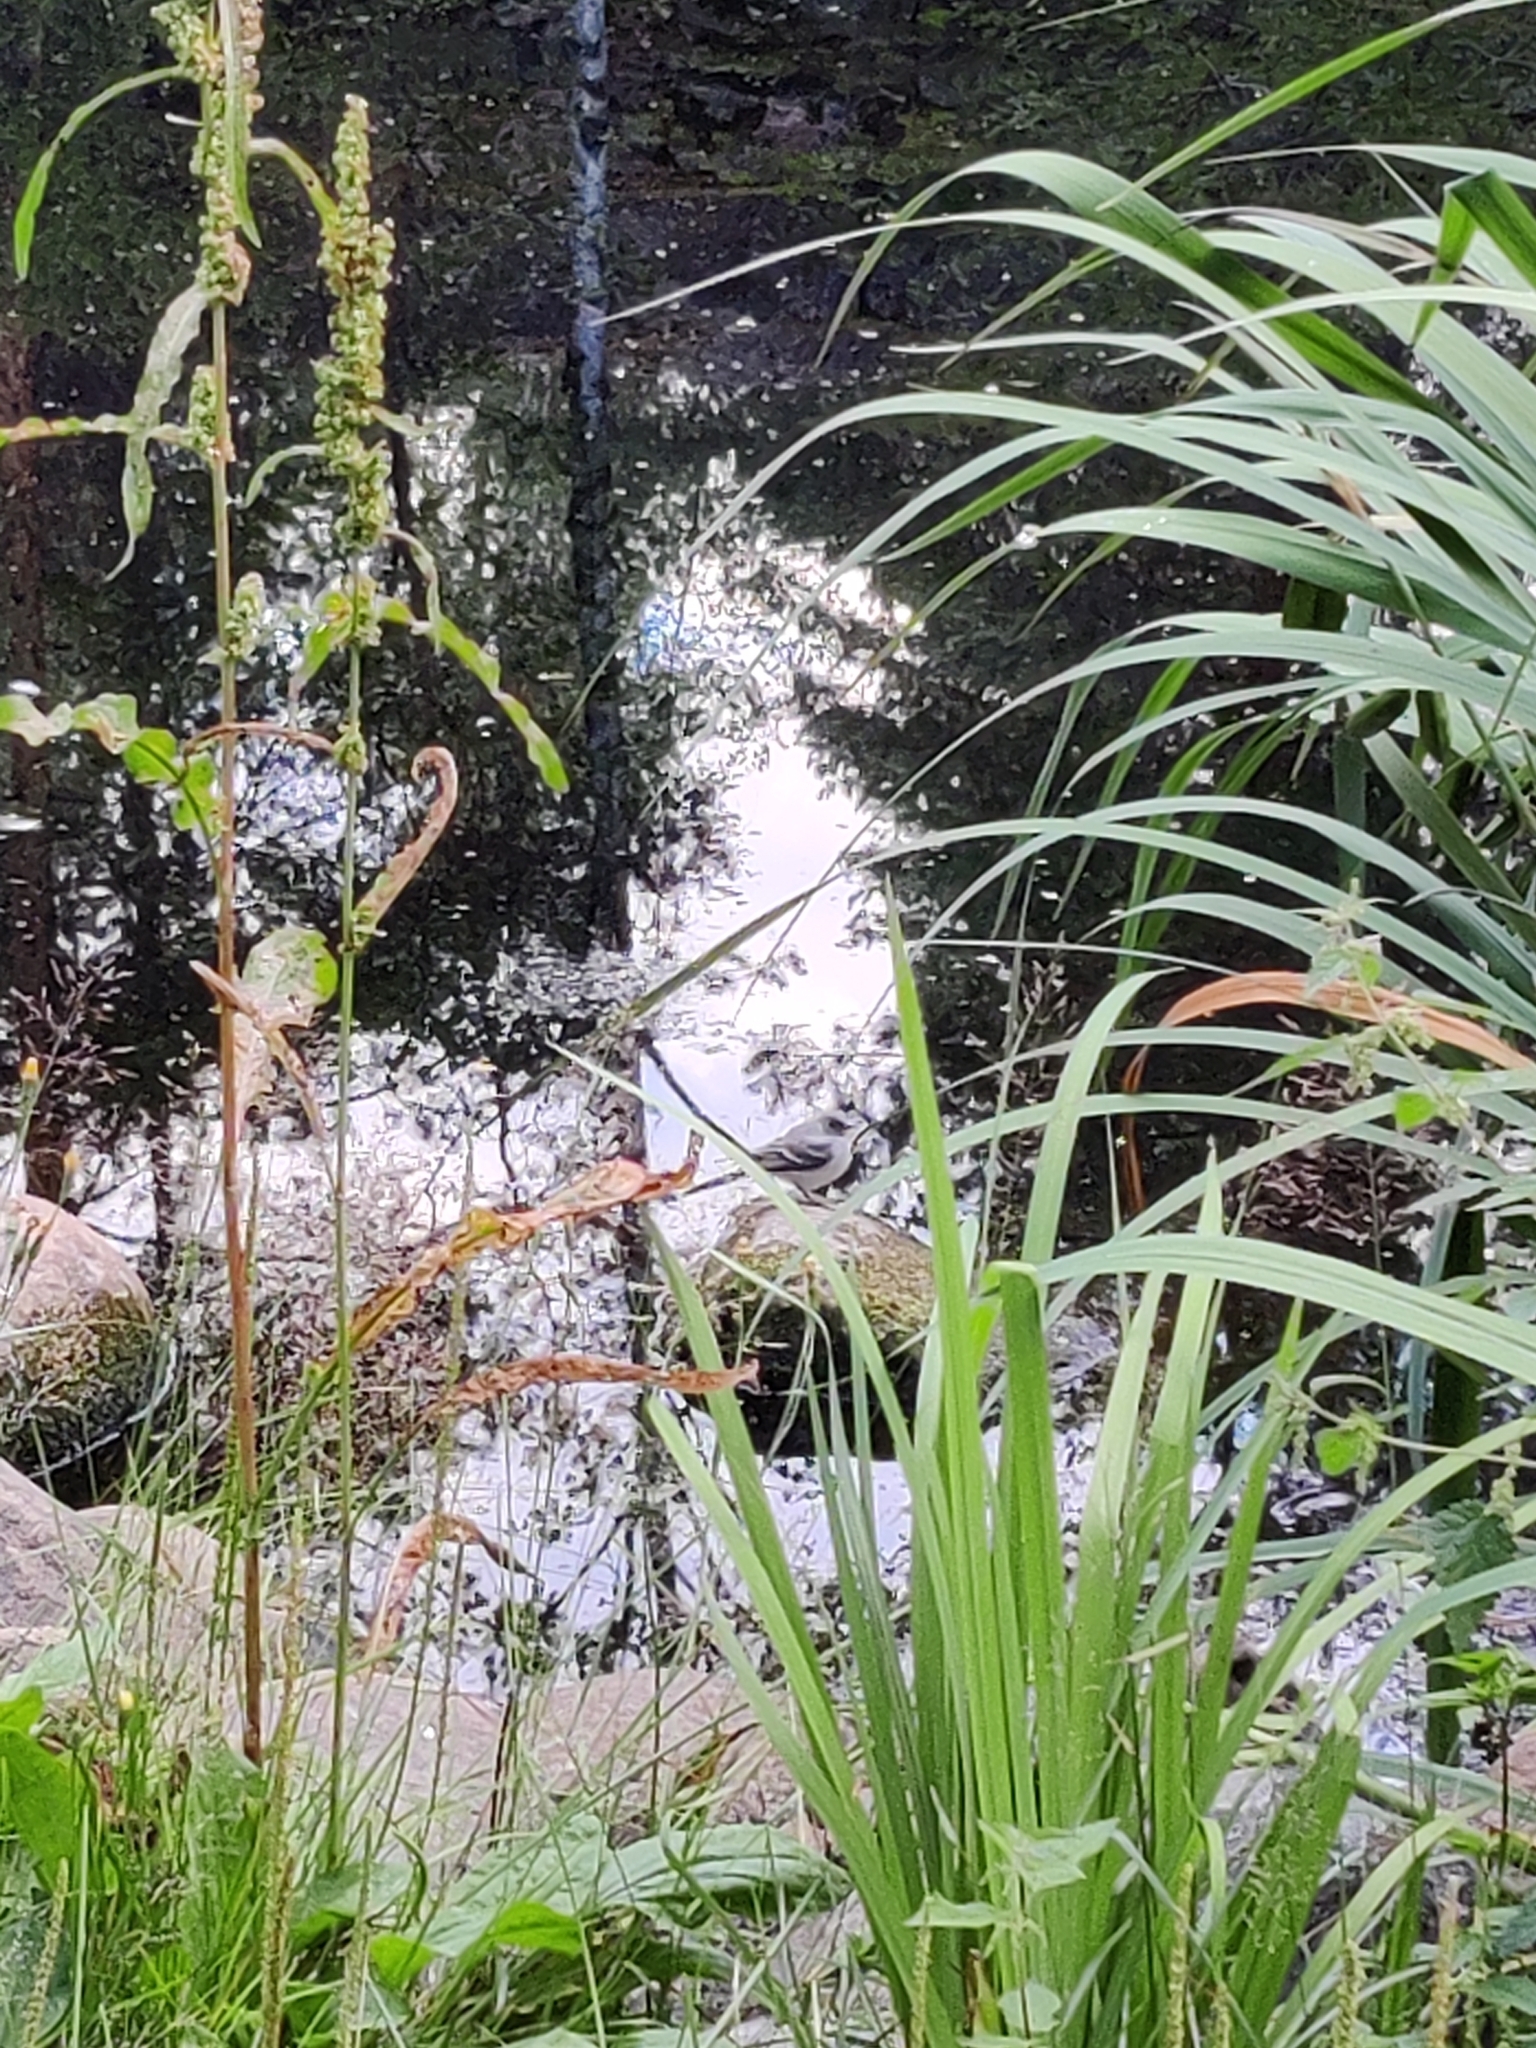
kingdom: Animalia
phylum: Chordata
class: Aves
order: Passeriformes
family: Motacillidae
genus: Motacilla
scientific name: Motacilla alba
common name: White wagtail
